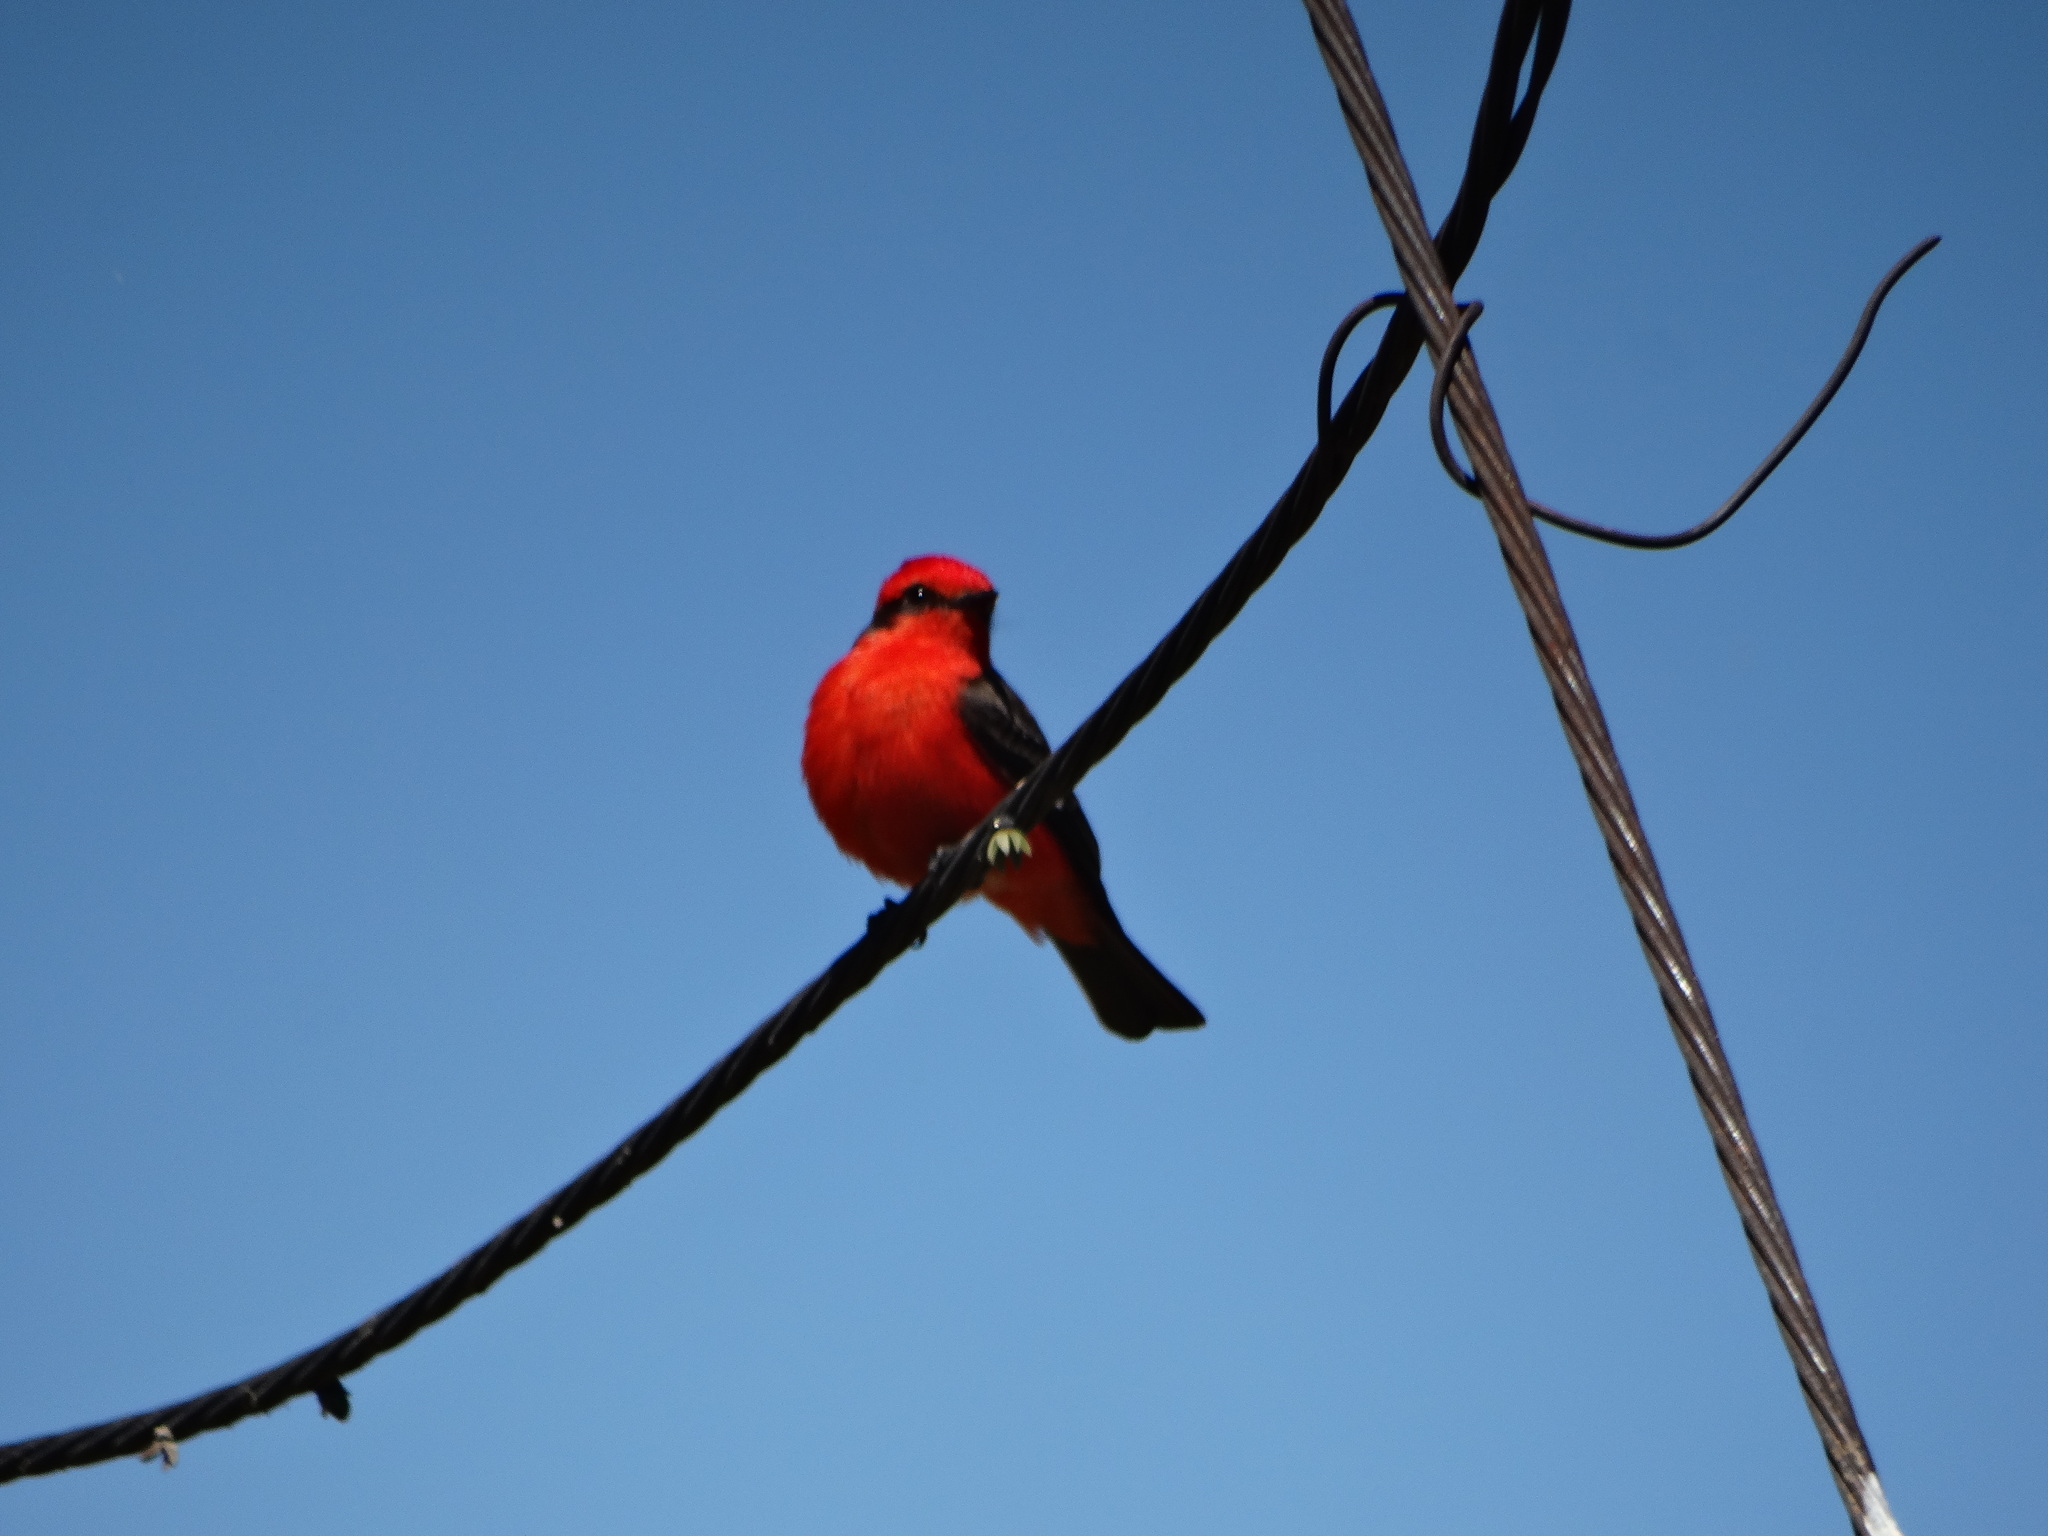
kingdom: Animalia
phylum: Chordata
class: Aves
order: Passeriformes
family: Tyrannidae
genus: Pyrocephalus
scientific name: Pyrocephalus rubinus
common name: Vermilion flycatcher
